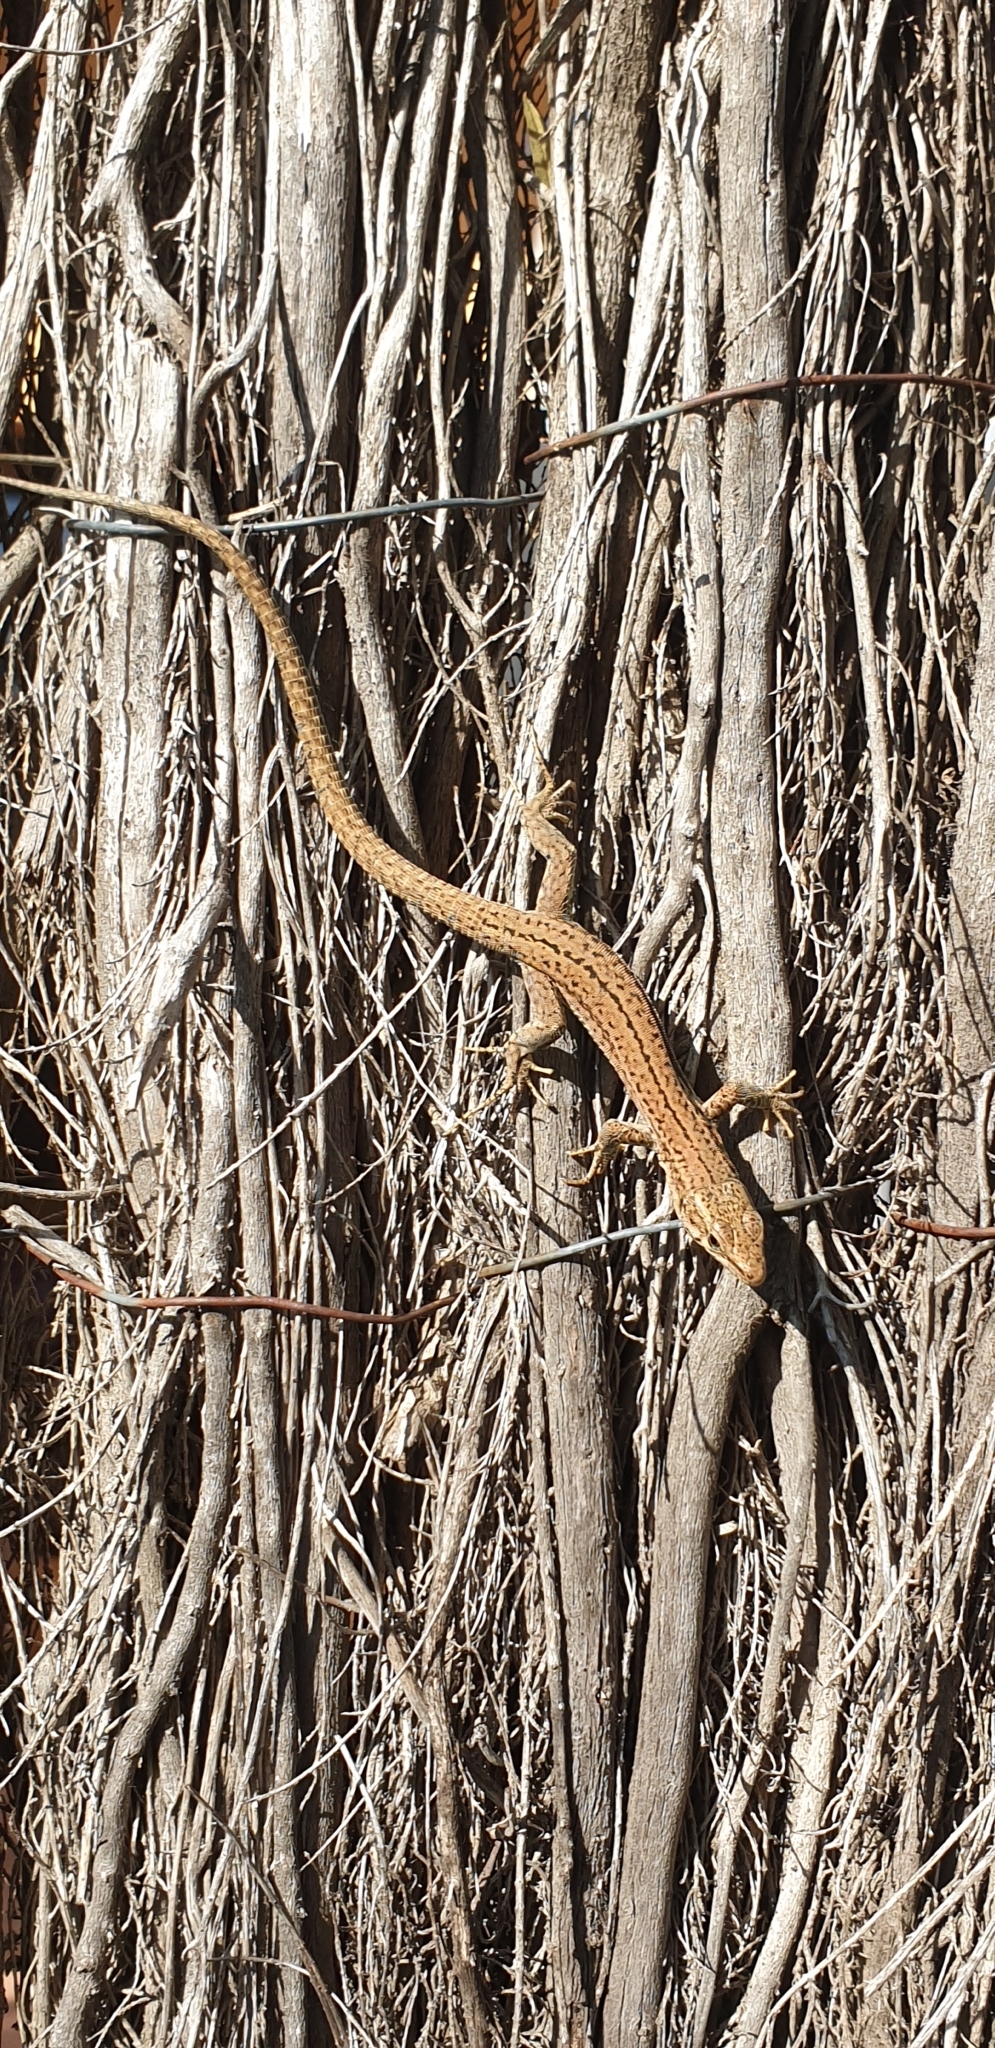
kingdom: Animalia
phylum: Chordata
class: Squamata
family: Lacertidae
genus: Podarcis
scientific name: Podarcis liolepis
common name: Catalonian wall lizard
